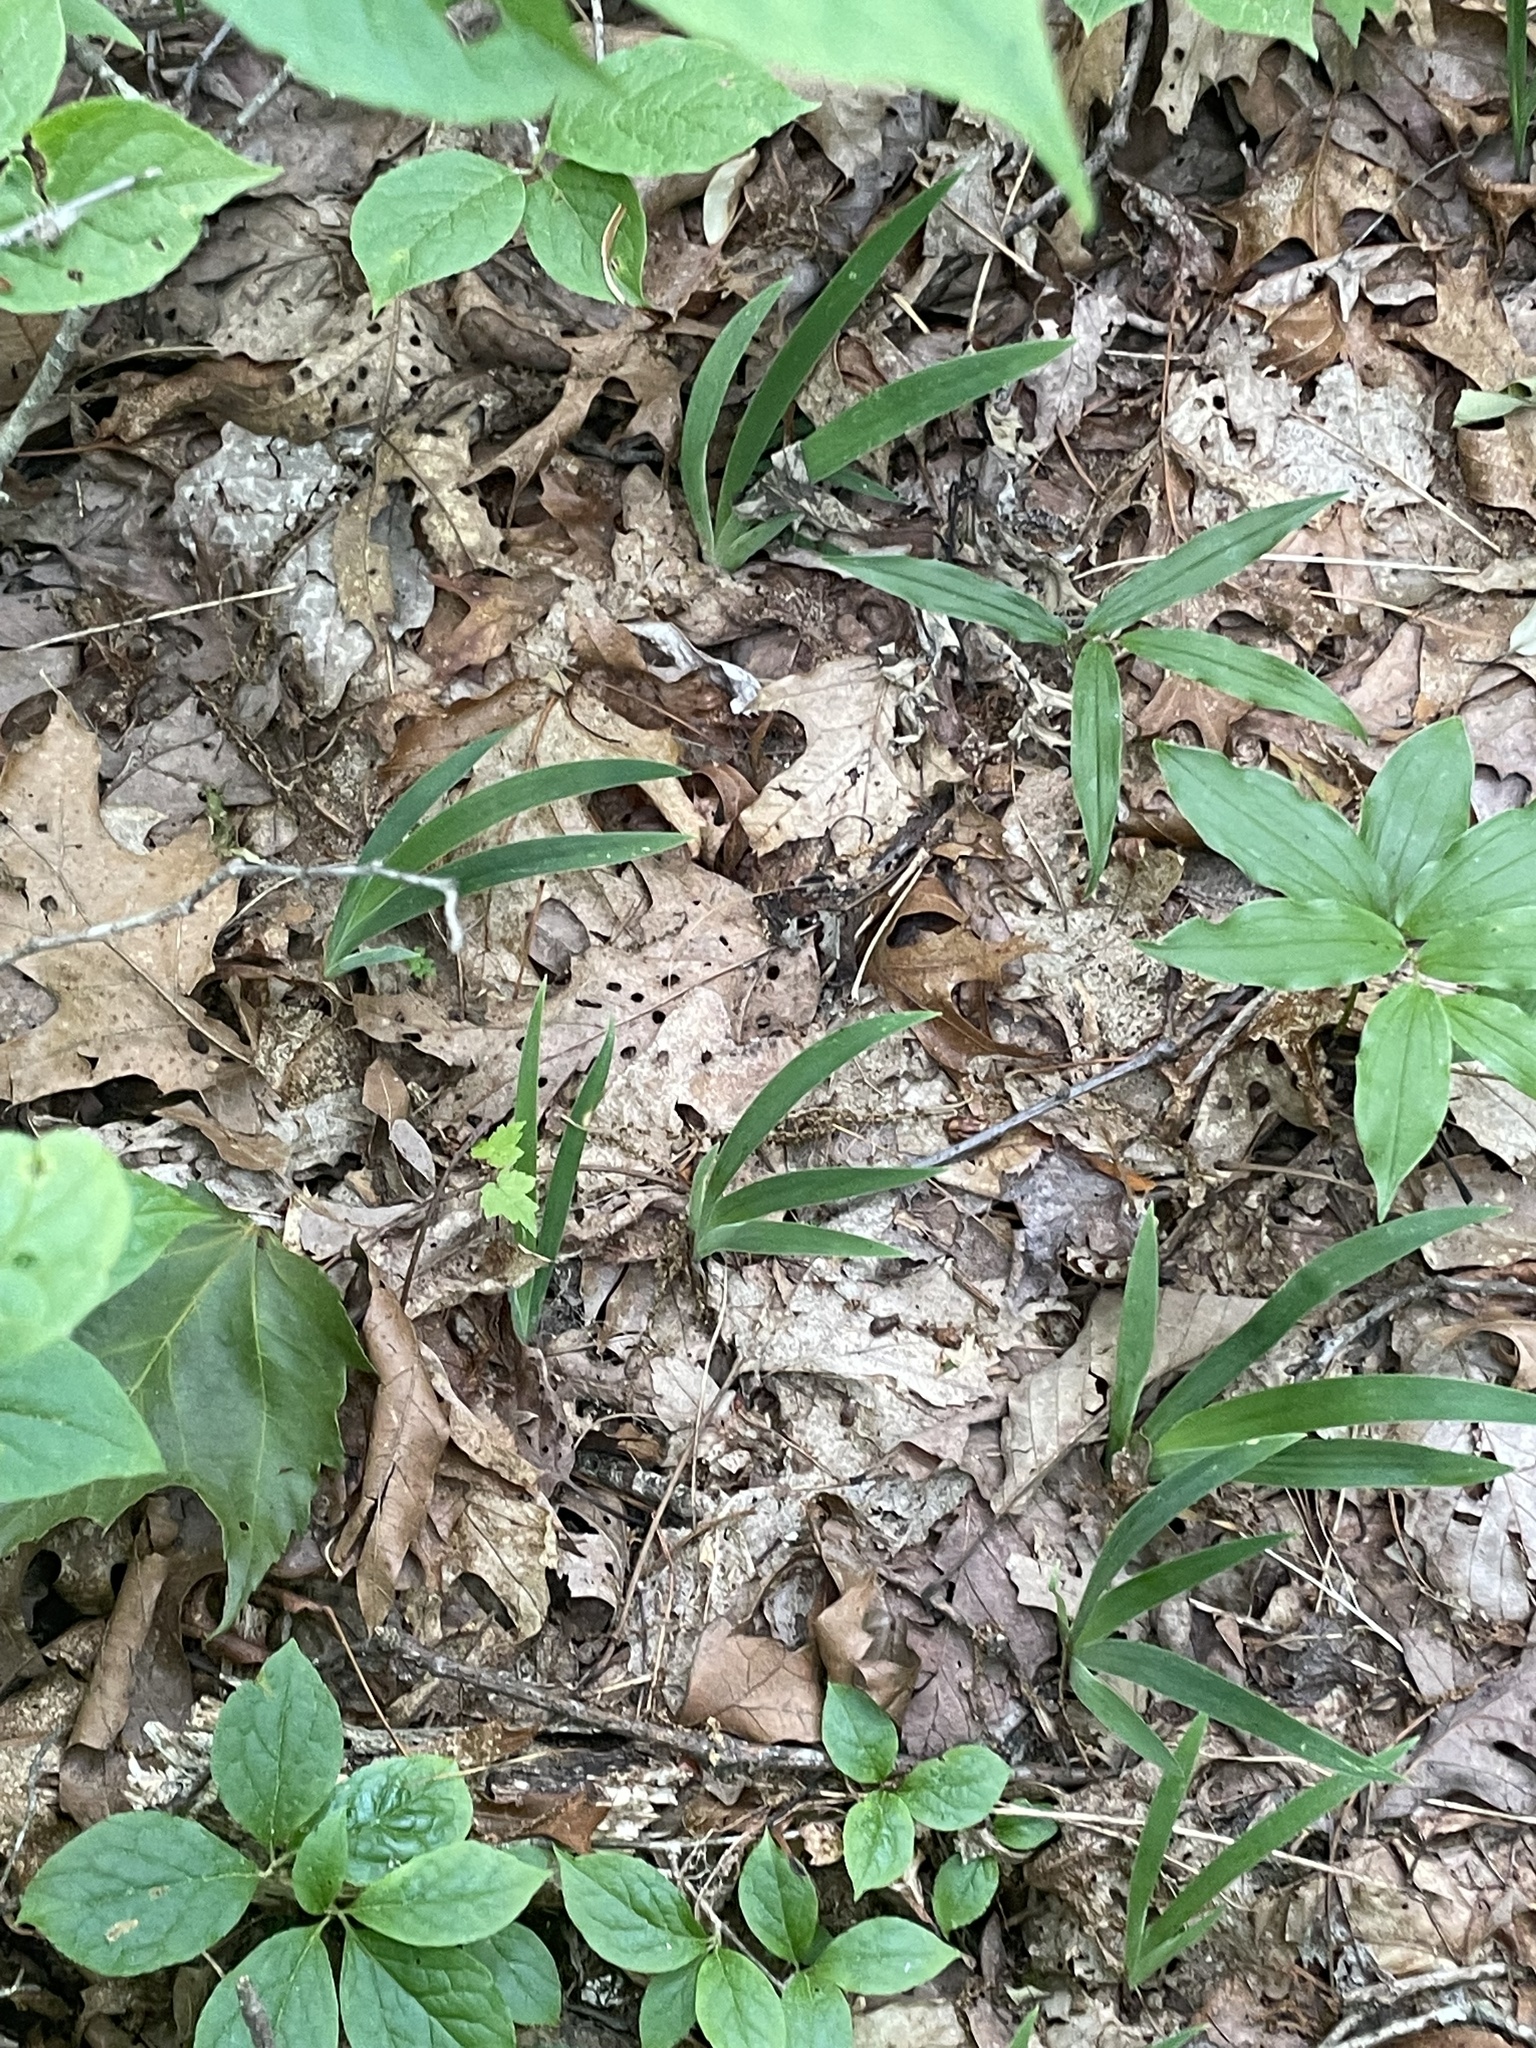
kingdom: Plantae
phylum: Tracheophyta
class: Liliopsida
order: Asparagales
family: Iridaceae
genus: Iris
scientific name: Iris cristata
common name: Crested iris
